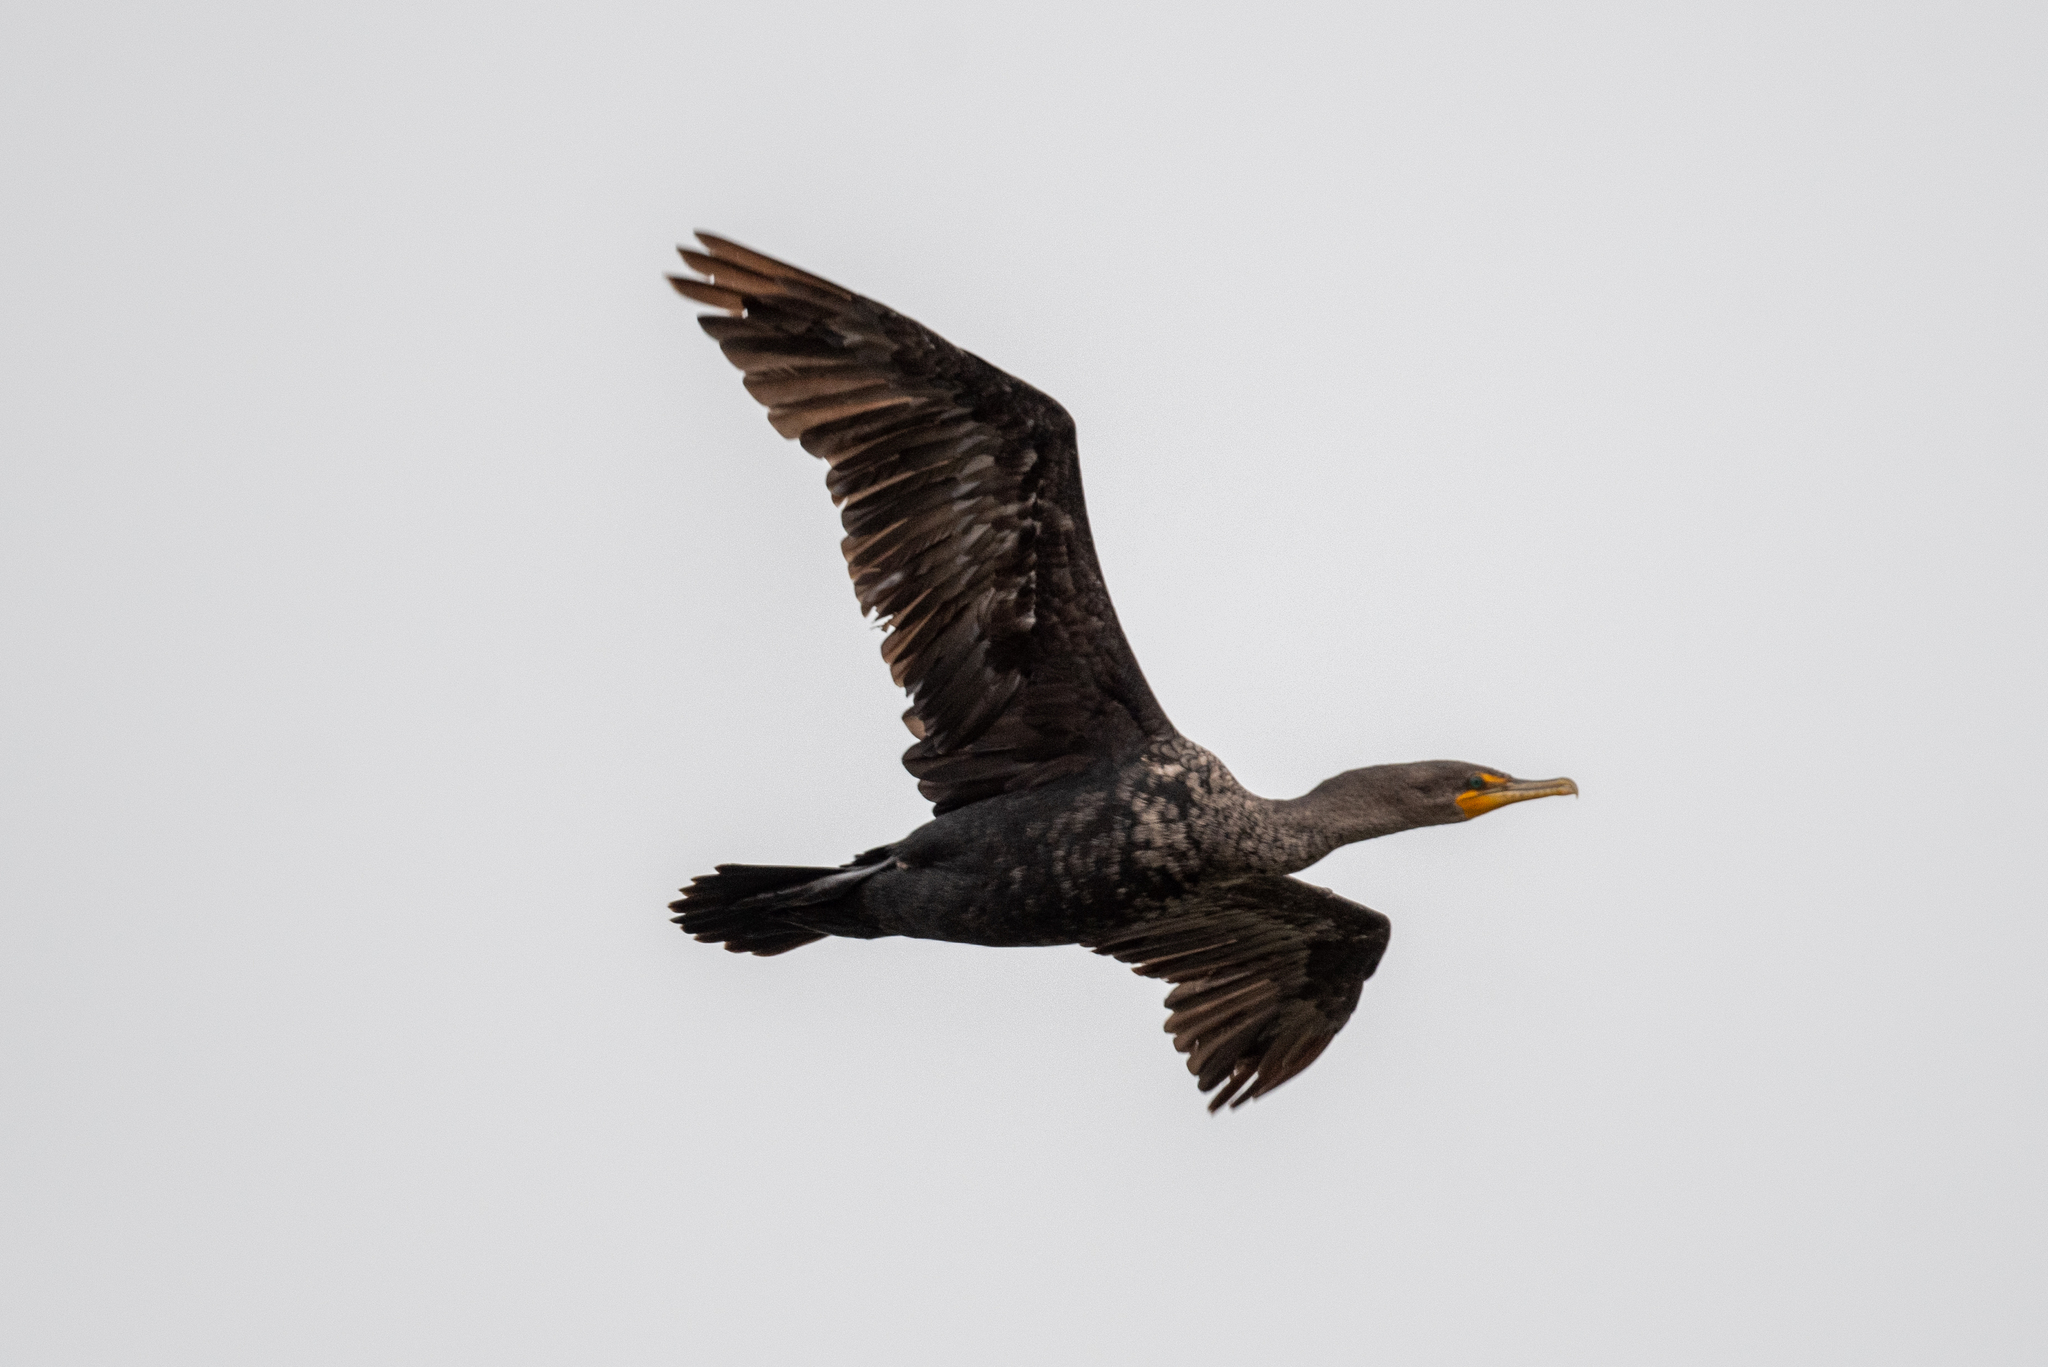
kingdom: Animalia
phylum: Chordata
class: Aves
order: Suliformes
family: Phalacrocoracidae
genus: Phalacrocorax
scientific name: Phalacrocorax auritus
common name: Double-crested cormorant
